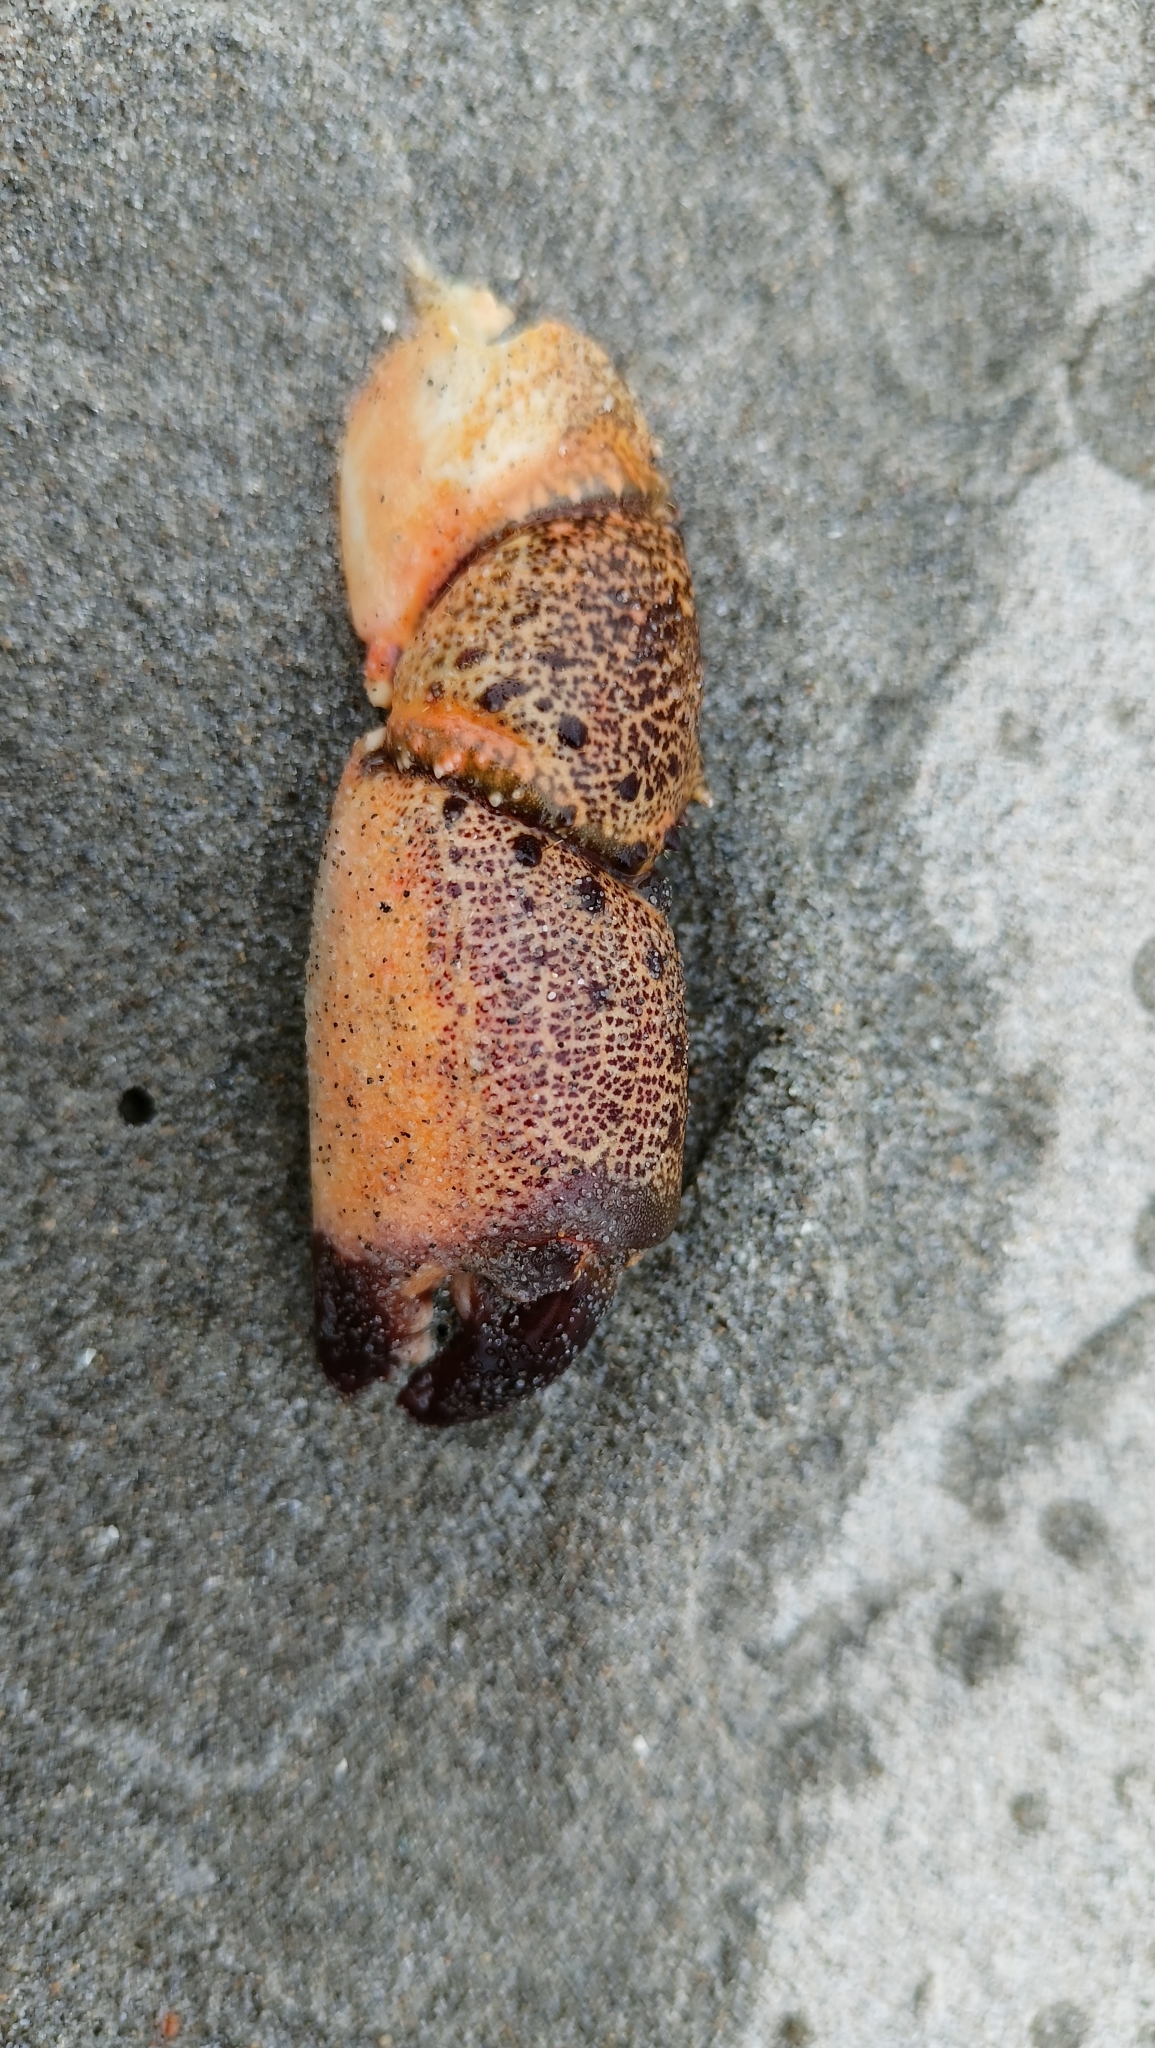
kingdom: Animalia
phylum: Arthropoda
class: Malacostraca
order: Decapoda
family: Eriphiidae
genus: Eriphia
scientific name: Eriphia verrucosa
